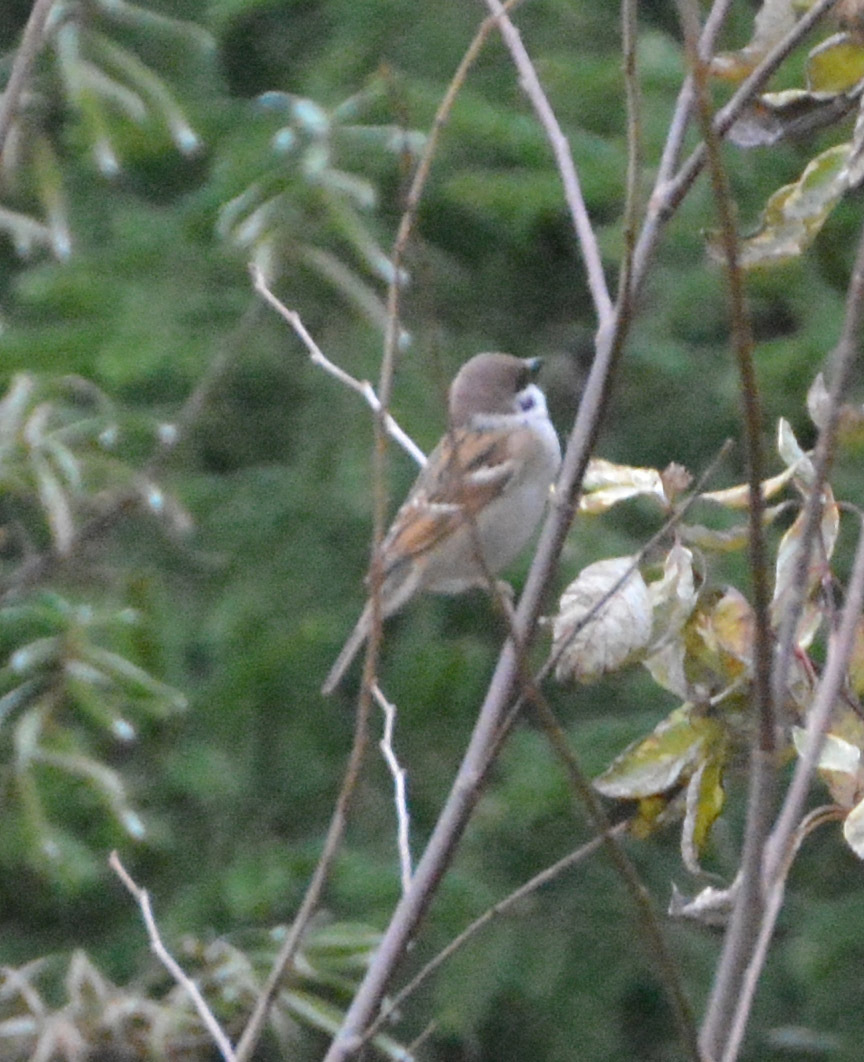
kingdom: Animalia
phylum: Chordata
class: Aves
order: Passeriformes
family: Passeridae
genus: Passer
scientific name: Passer montanus
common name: Eurasian tree sparrow
